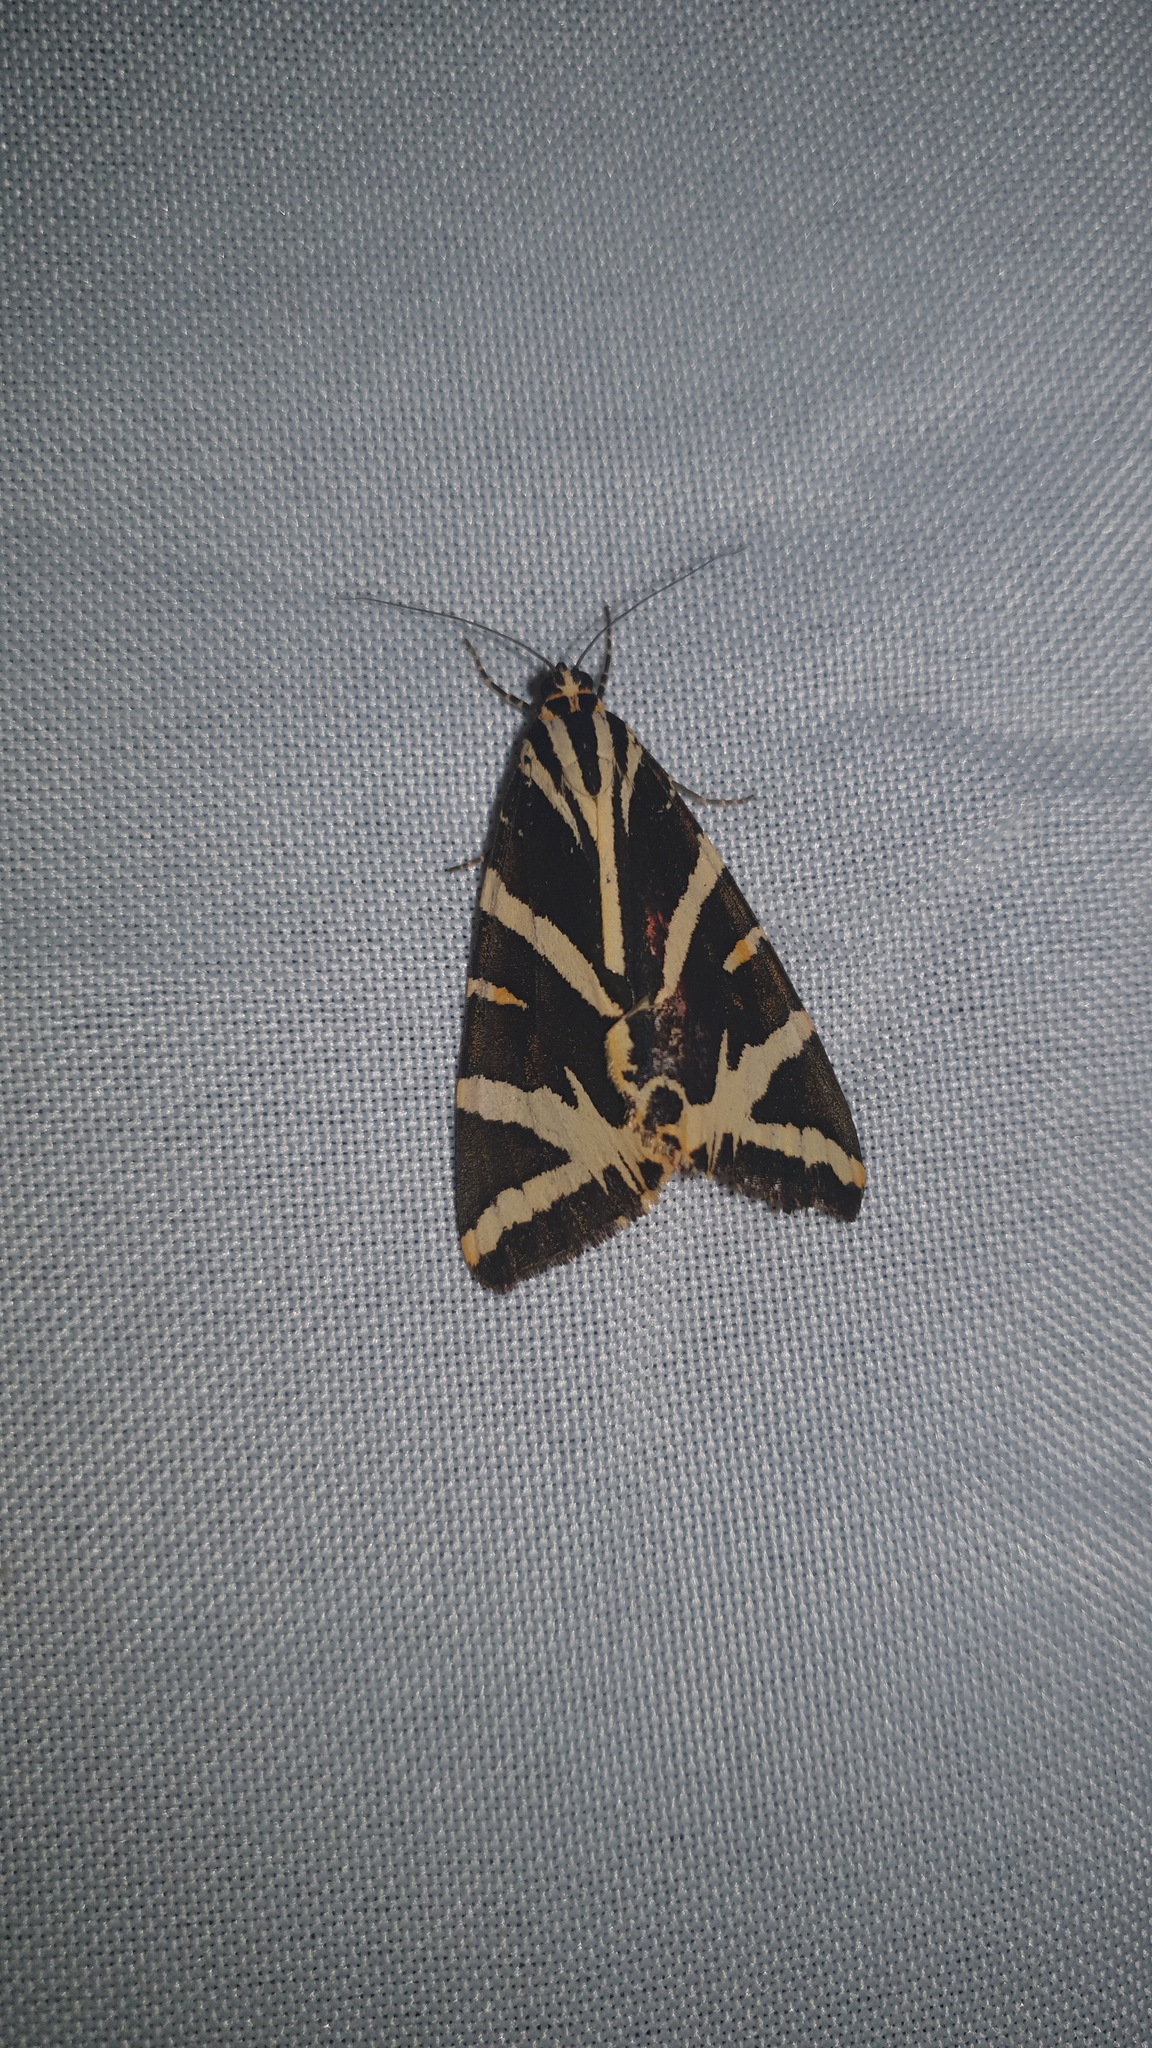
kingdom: Animalia
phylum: Arthropoda
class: Insecta
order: Lepidoptera
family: Erebidae
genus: Euplagia
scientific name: Euplagia quadripunctaria
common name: Jersey tiger
